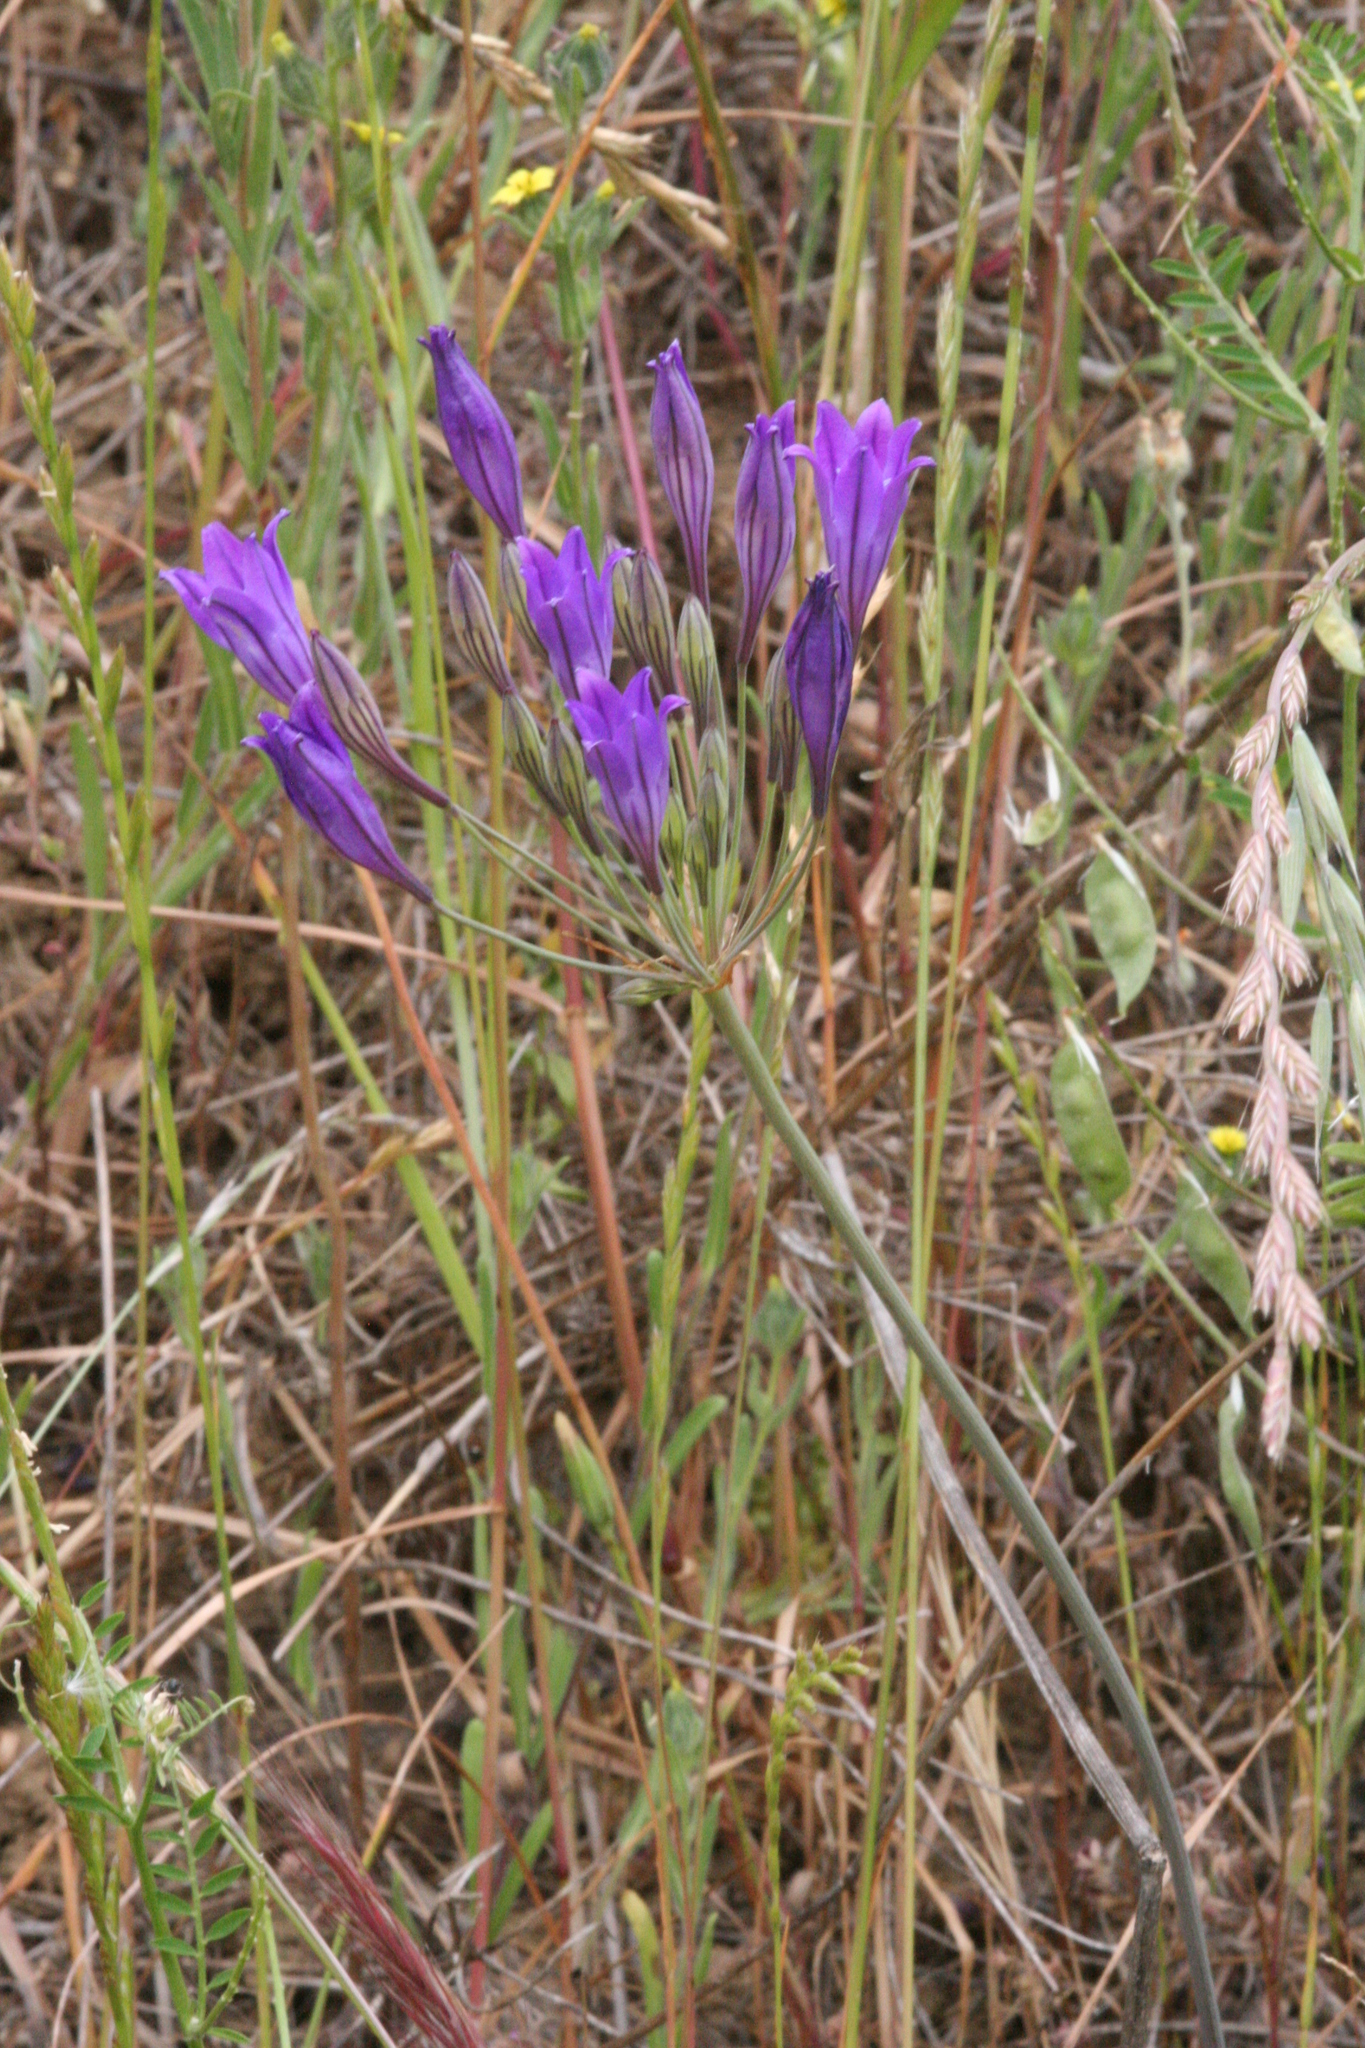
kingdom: Plantae
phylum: Tracheophyta
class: Liliopsida
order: Asparagales
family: Asparagaceae
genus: Triteleia
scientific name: Triteleia laxa
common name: Triplet-lily
